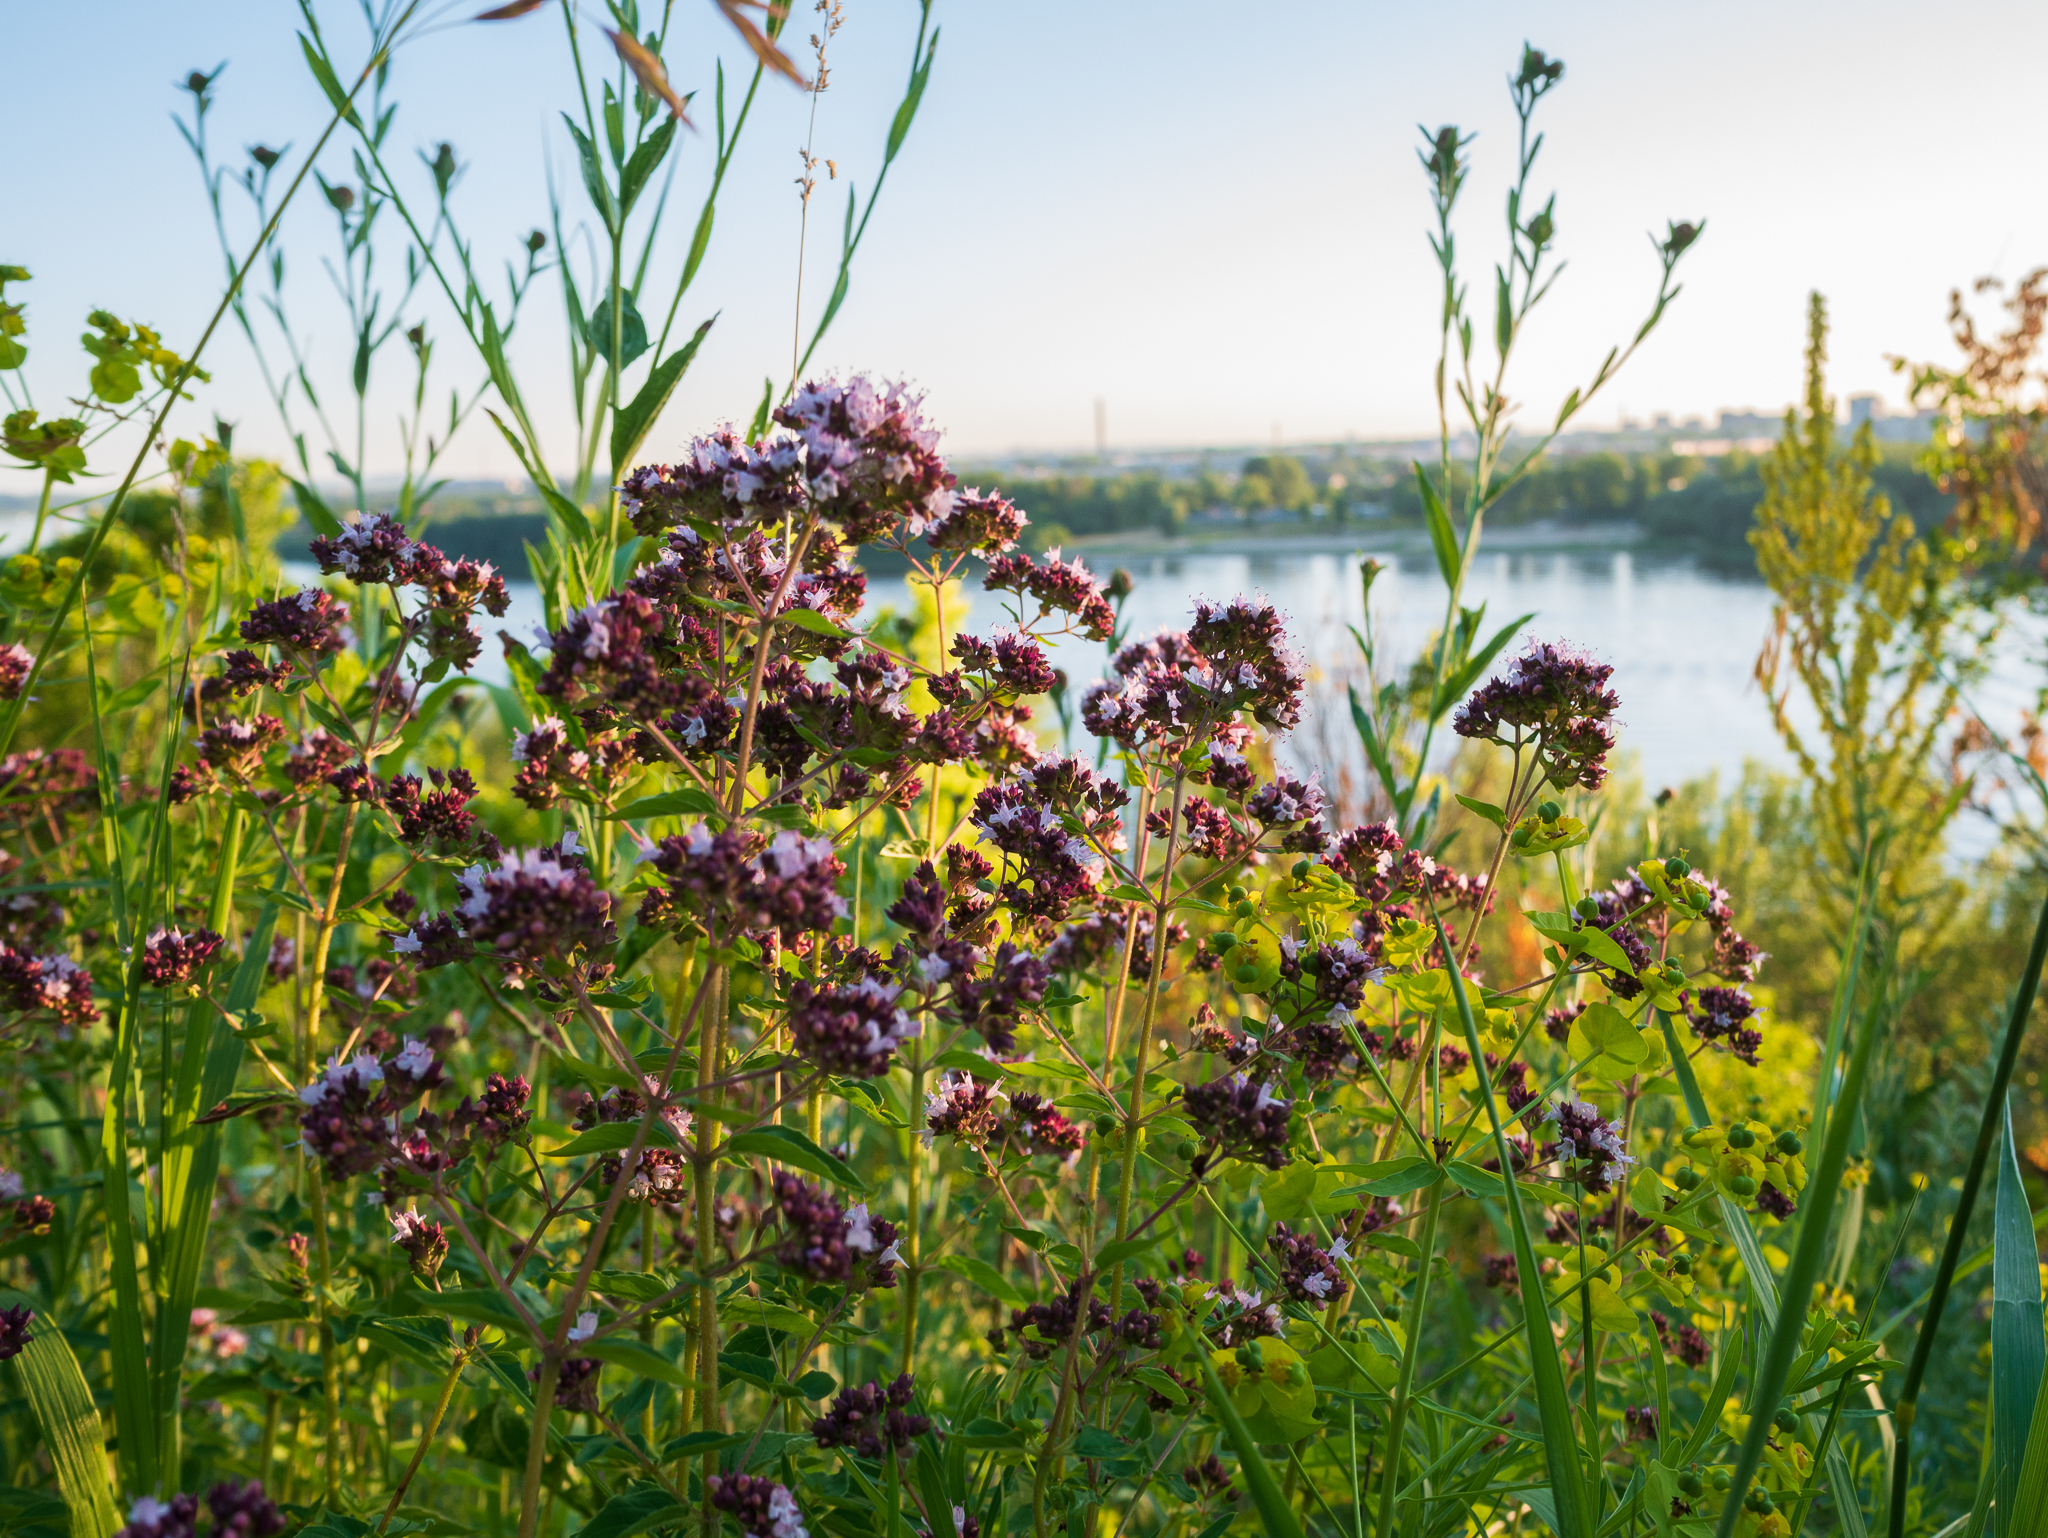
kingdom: Plantae
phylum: Tracheophyta
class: Magnoliopsida
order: Lamiales
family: Lamiaceae
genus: Origanum
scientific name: Origanum vulgare
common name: Wild marjoram
